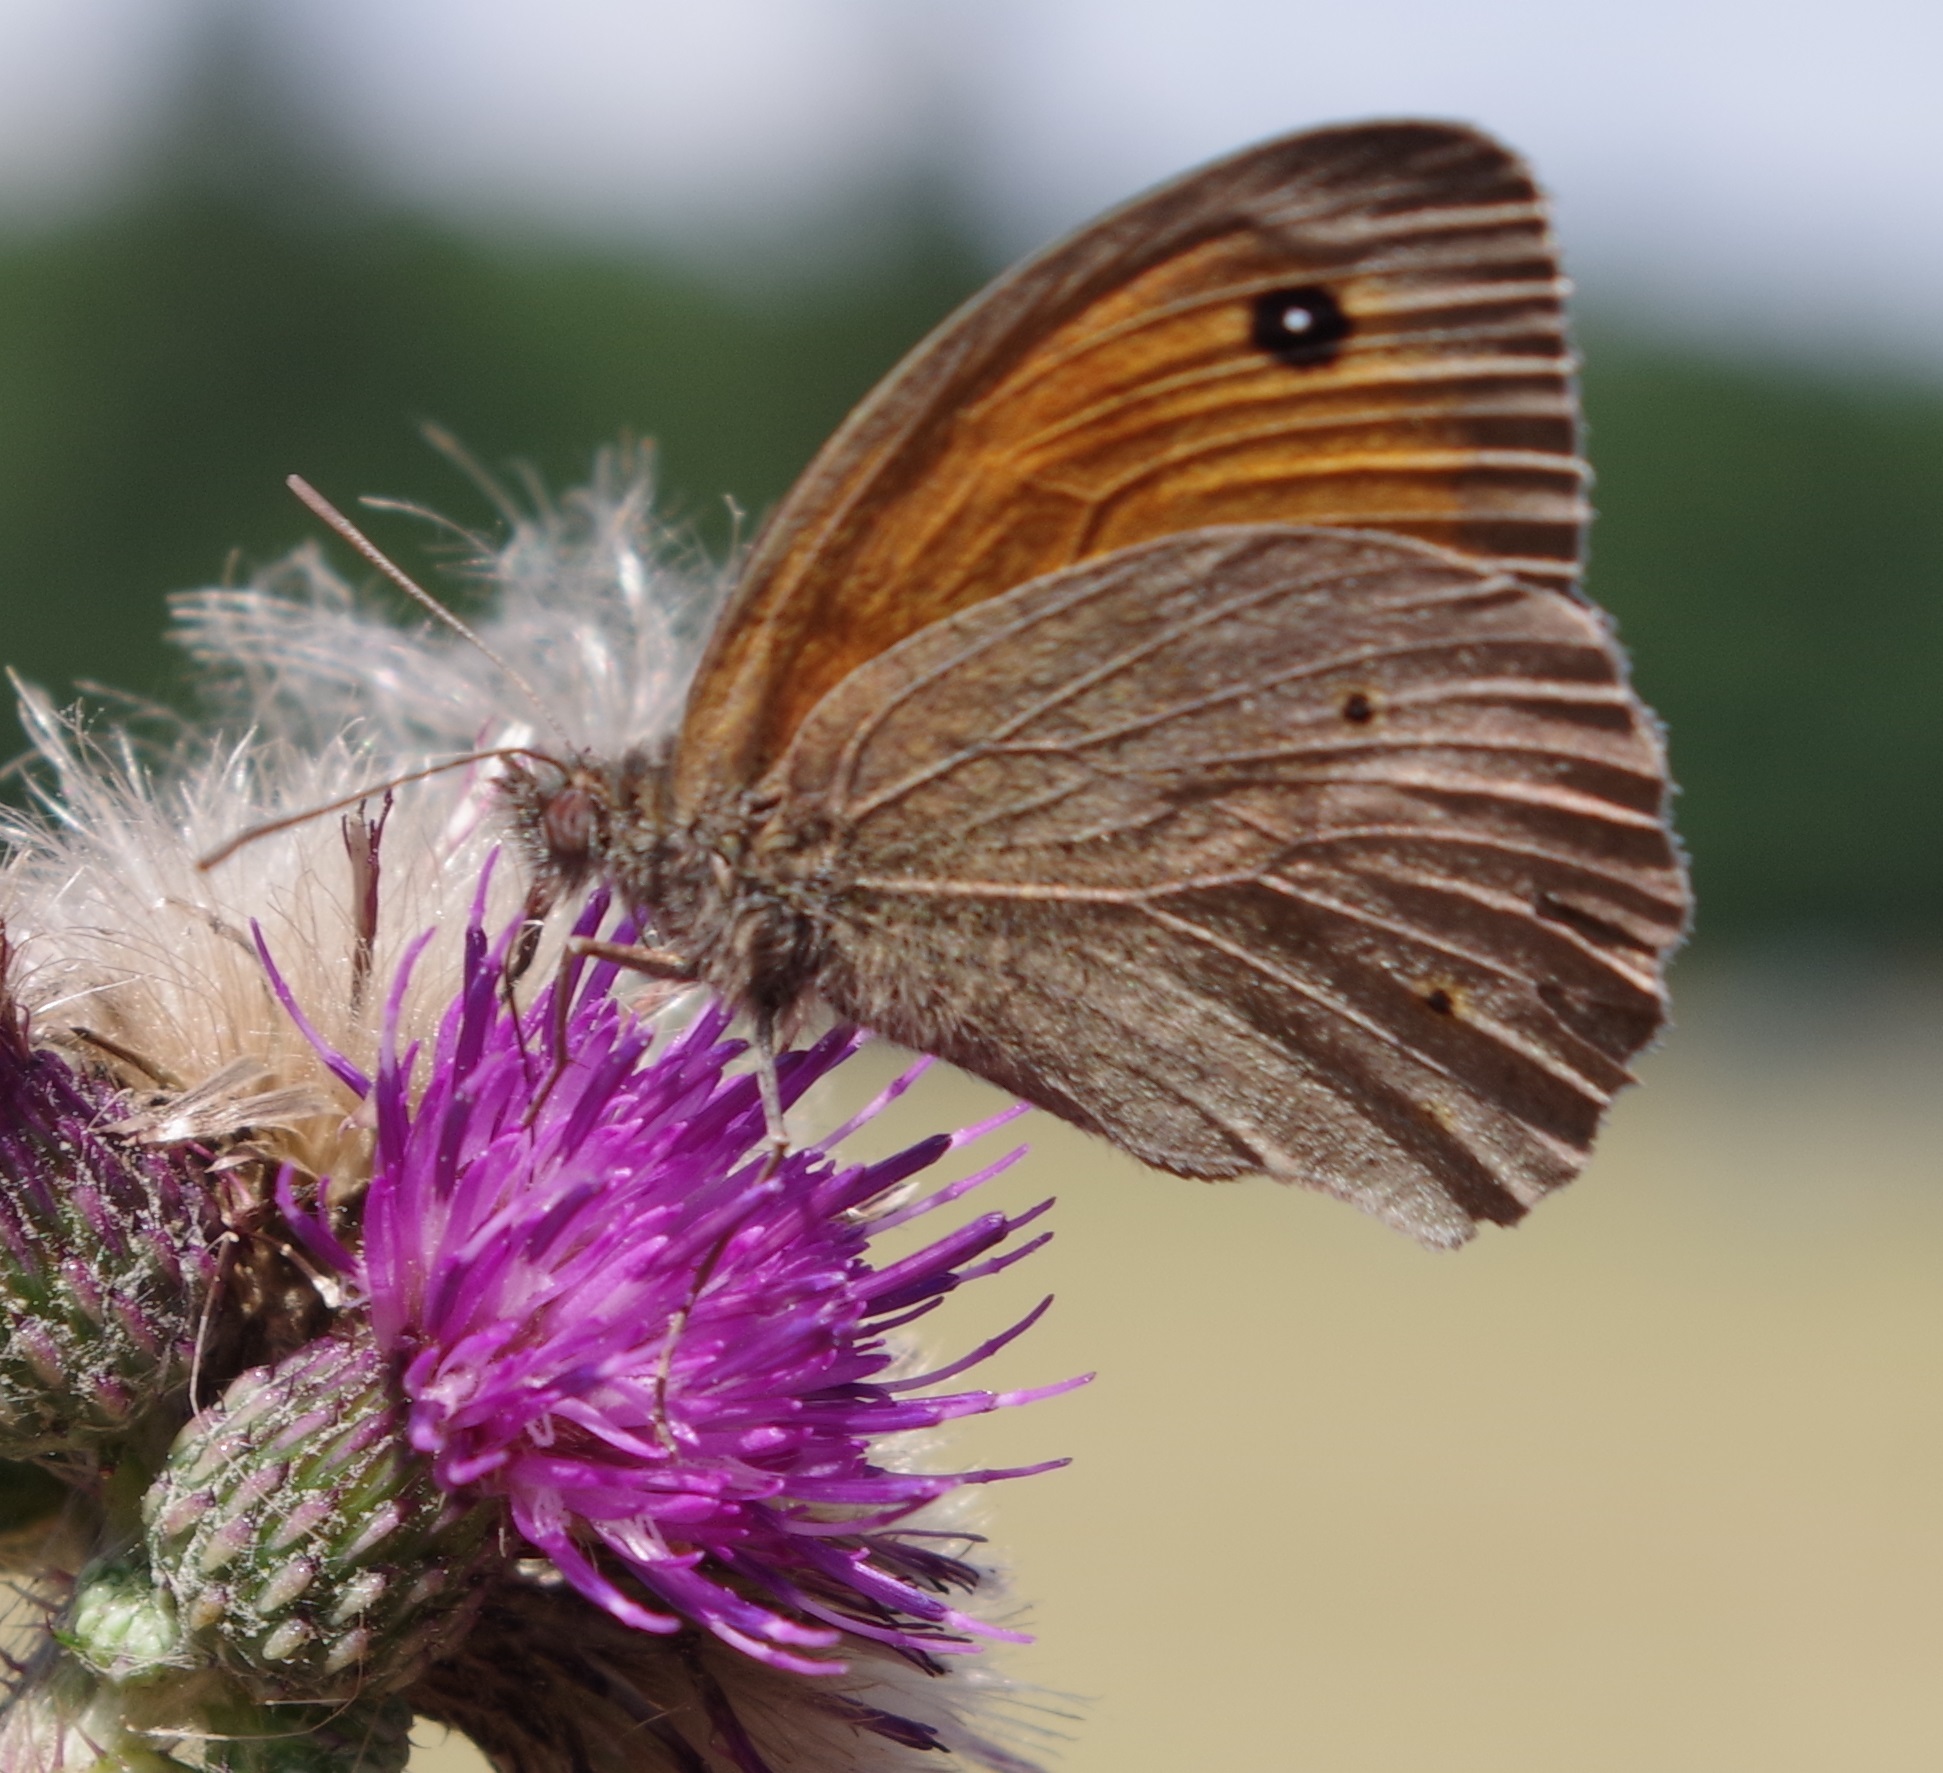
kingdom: Animalia
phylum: Arthropoda
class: Insecta
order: Lepidoptera
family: Nymphalidae
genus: Maniola
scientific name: Maniola jurtina
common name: Meadow brown
